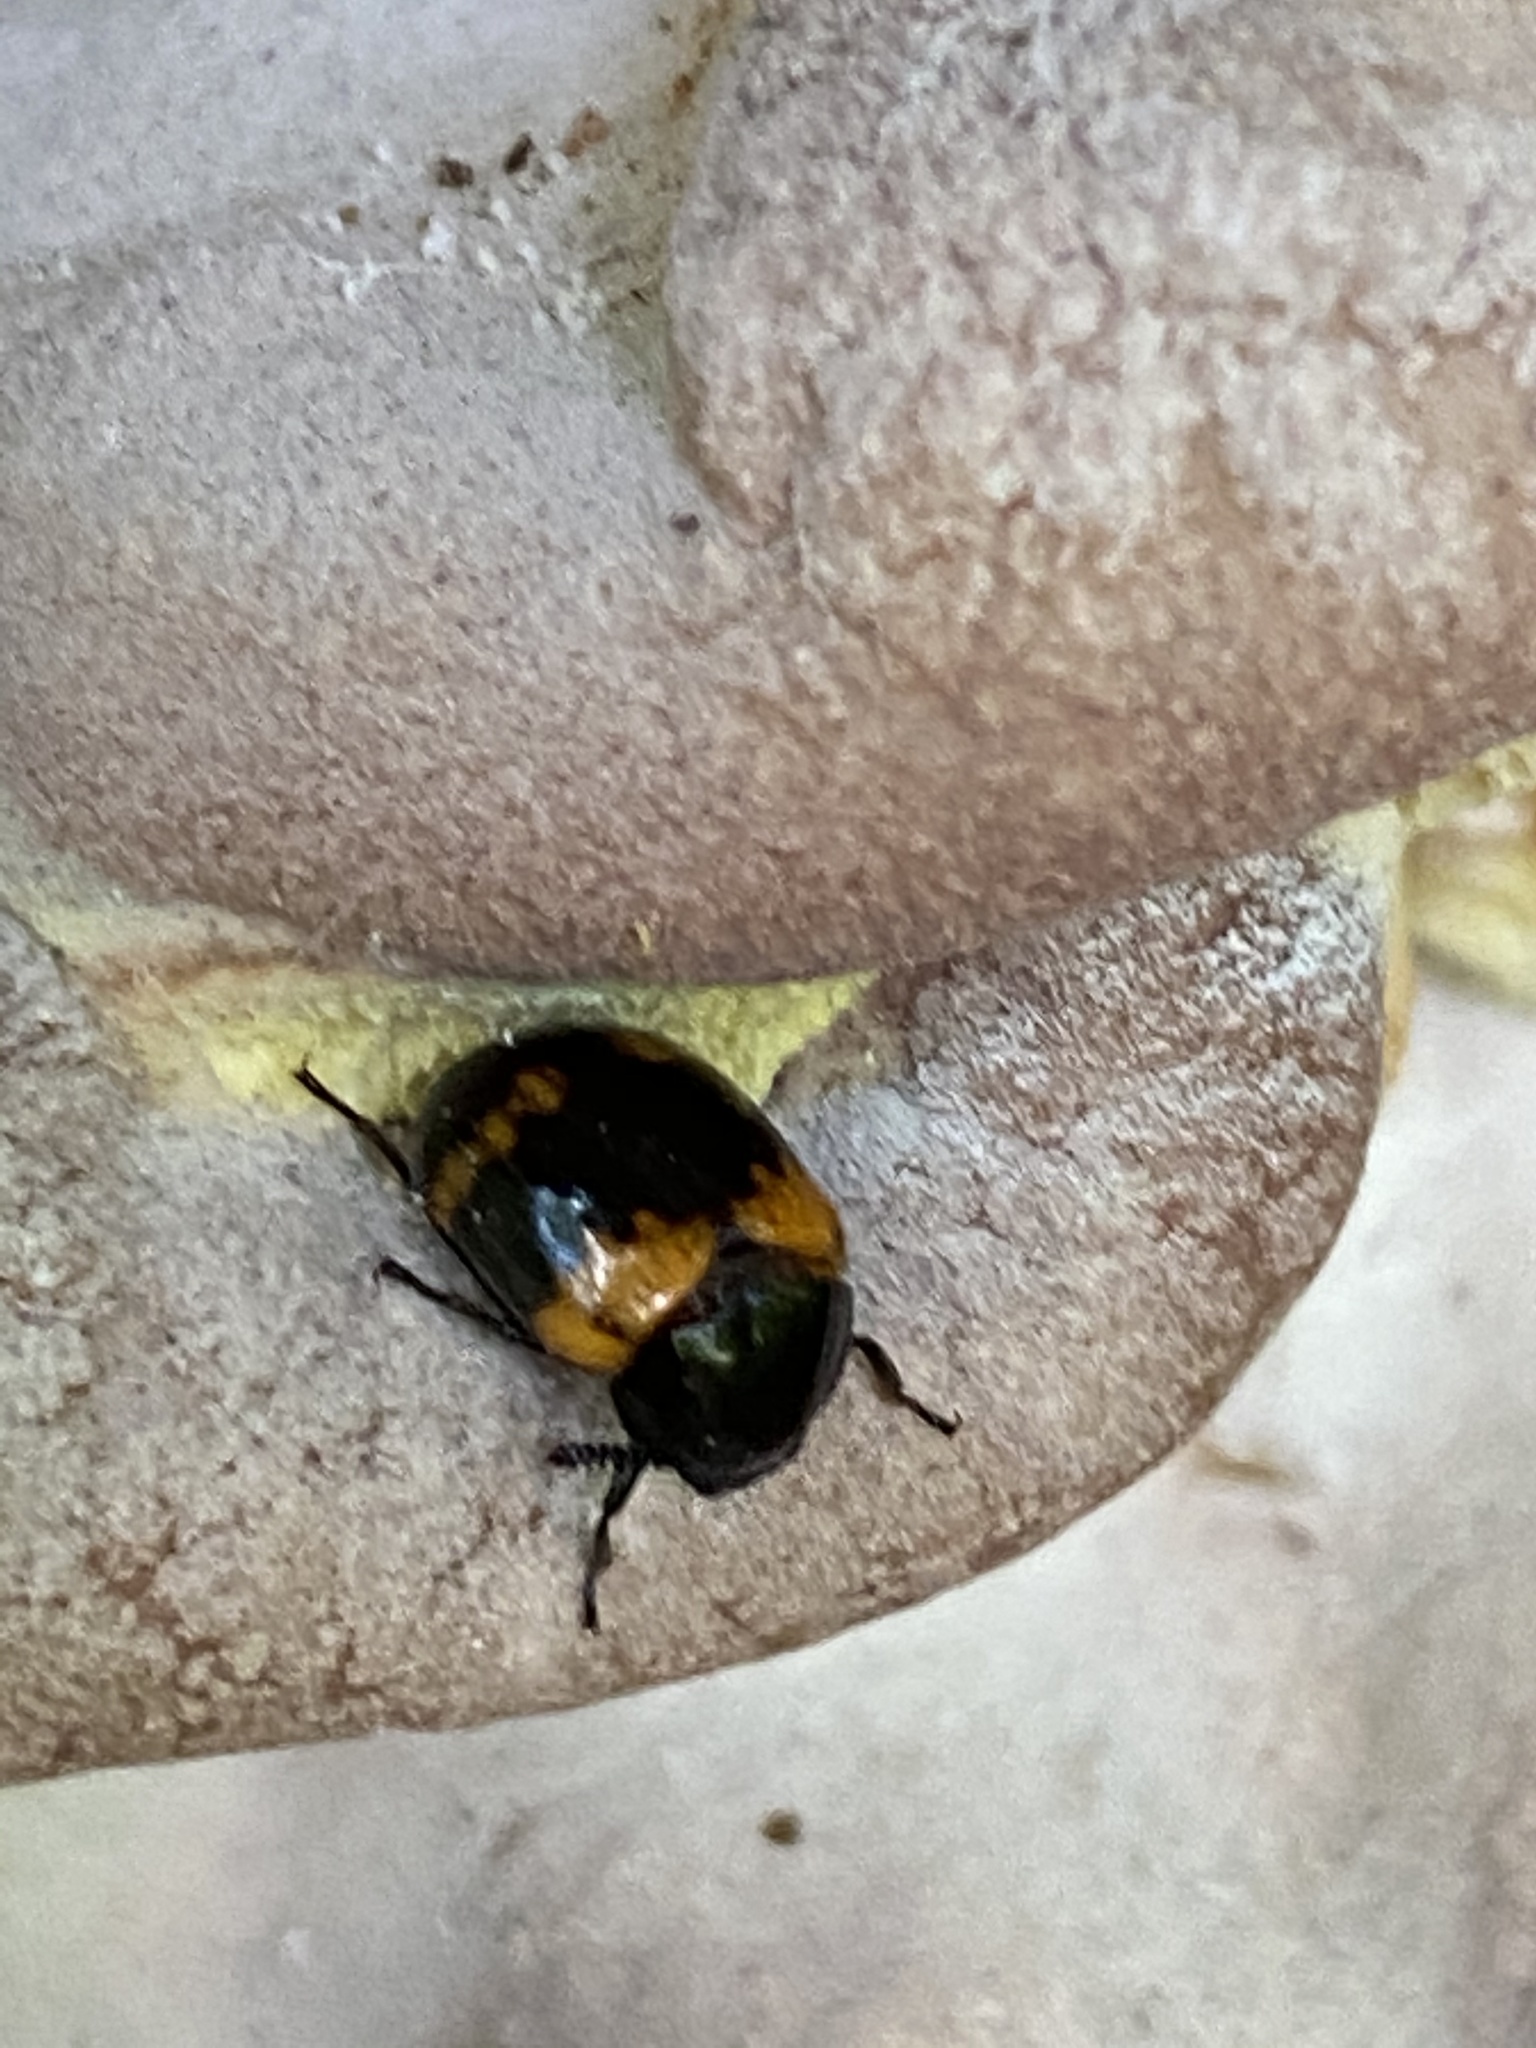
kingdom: Animalia
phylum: Arthropoda
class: Insecta
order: Coleoptera
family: Tenebrionidae
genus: Diaperis
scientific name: Diaperis boleti
